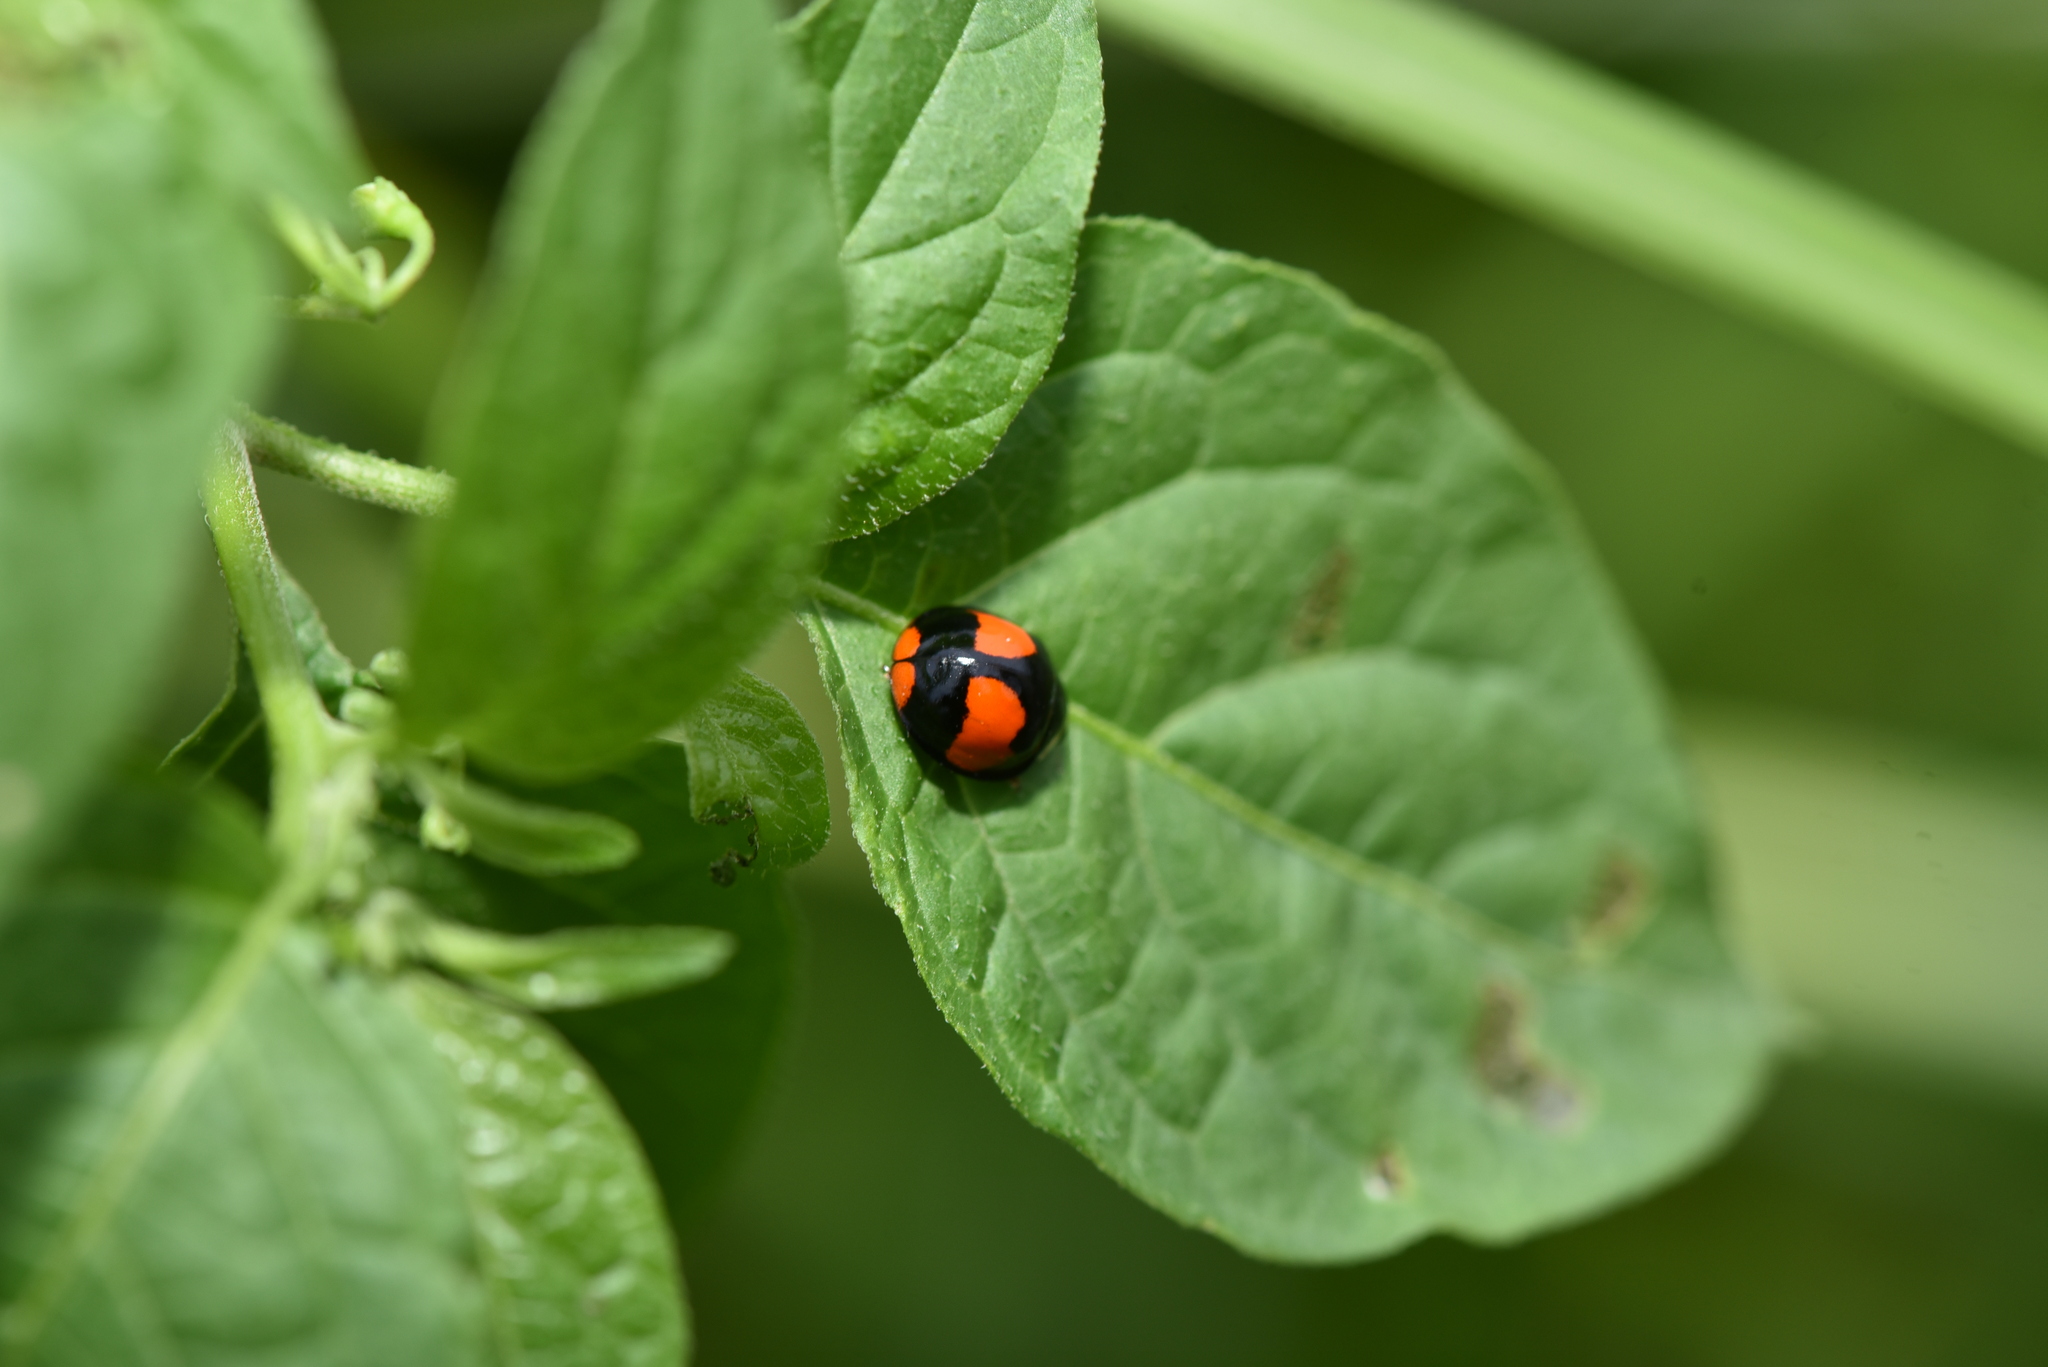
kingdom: Animalia
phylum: Arthropoda
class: Insecta
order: Coleoptera
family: Coccinellidae
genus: Coelophora
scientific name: Coelophora biplagiata
